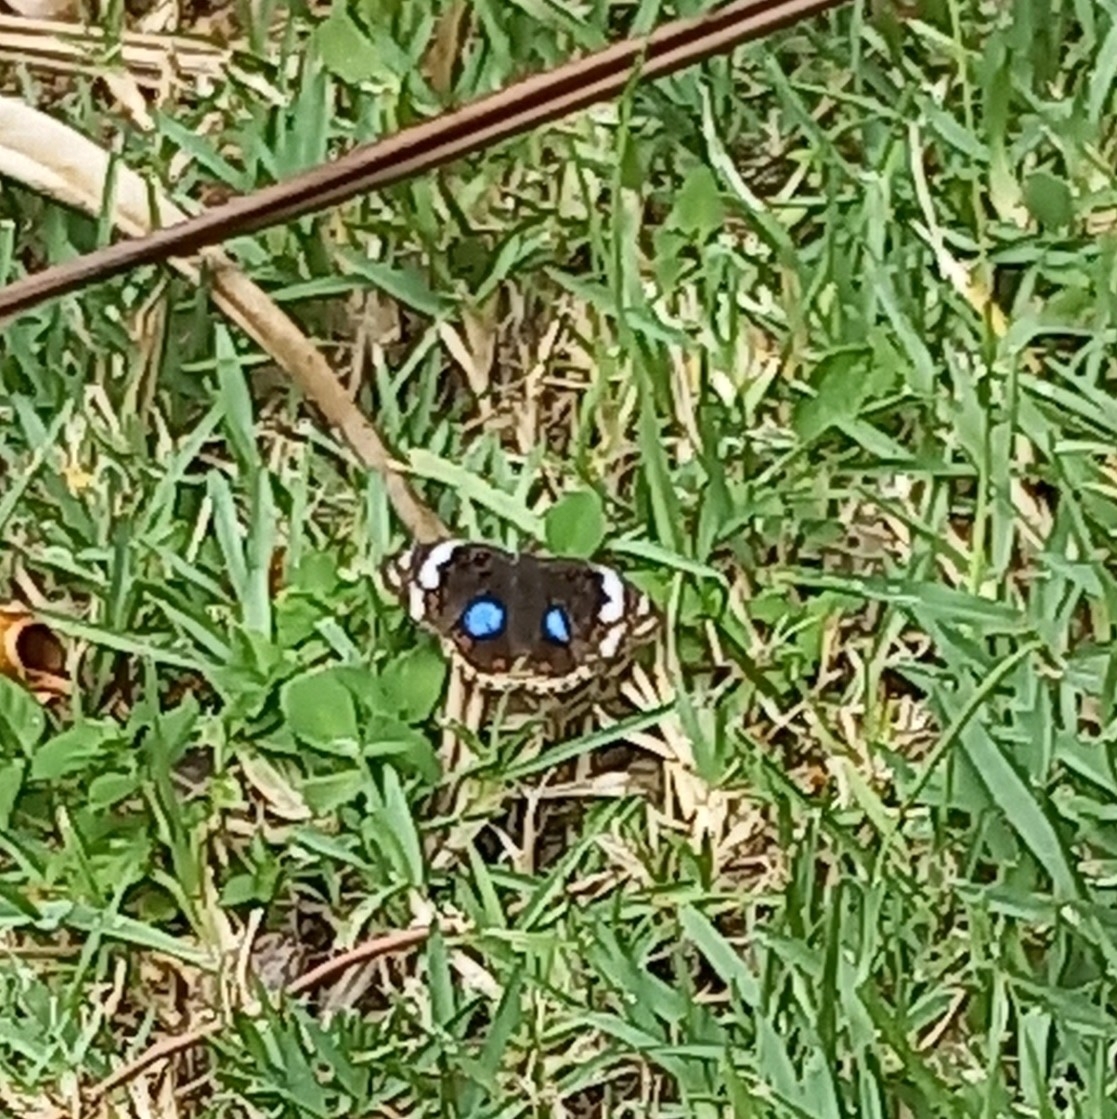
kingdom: Animalia
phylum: Arthropoda
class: Insecta
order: Lepidoptera
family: Nymphalidae
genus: Junonia
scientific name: Junonia oenone
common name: Dark blue pansy
